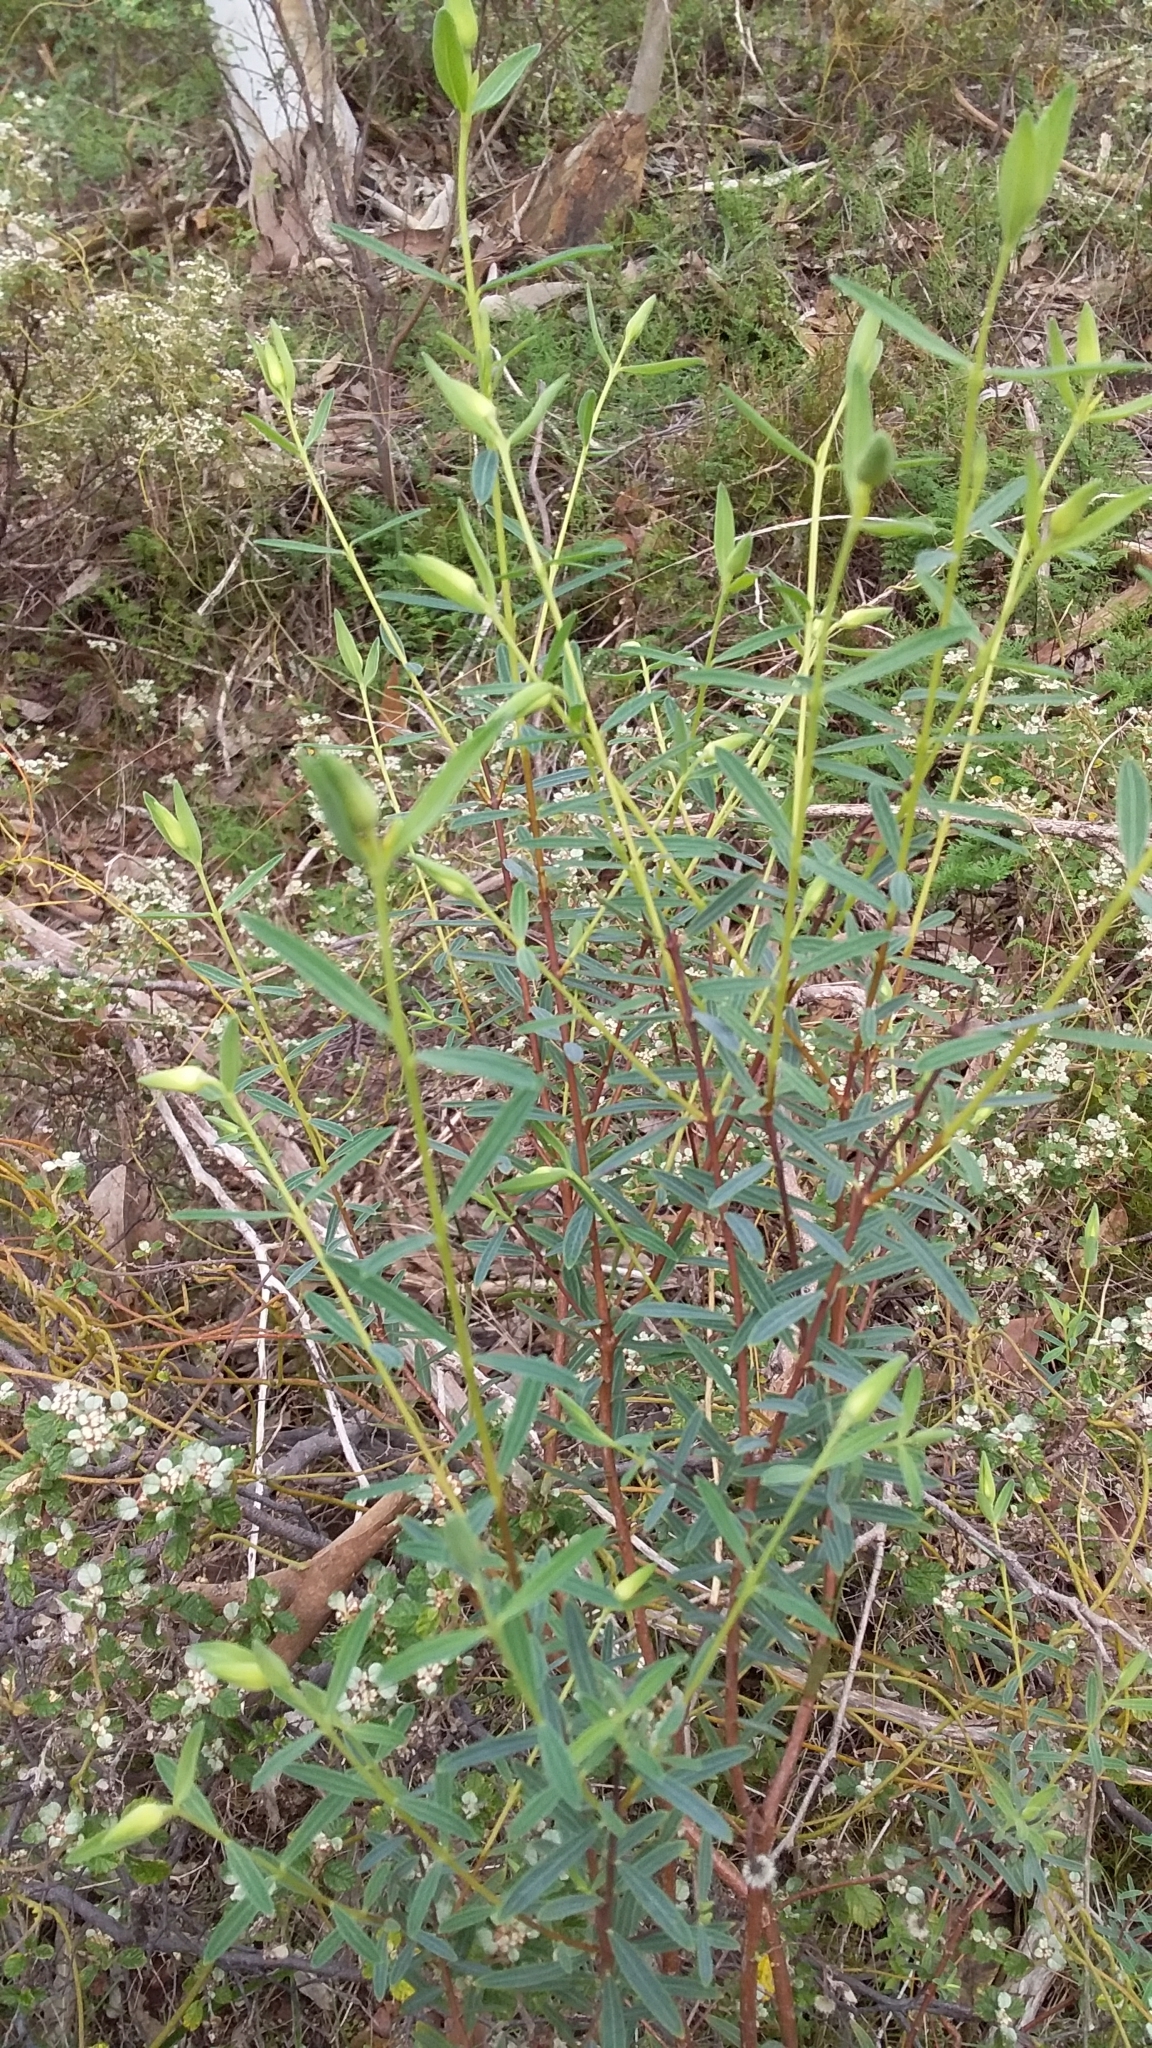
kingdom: Plantae
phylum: Tracheophyta
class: Magnoliopsida
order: Malvales
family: Thymelaeaceae
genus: Pimelea
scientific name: Pimelea linifolia
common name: Queen-of-the-bush
